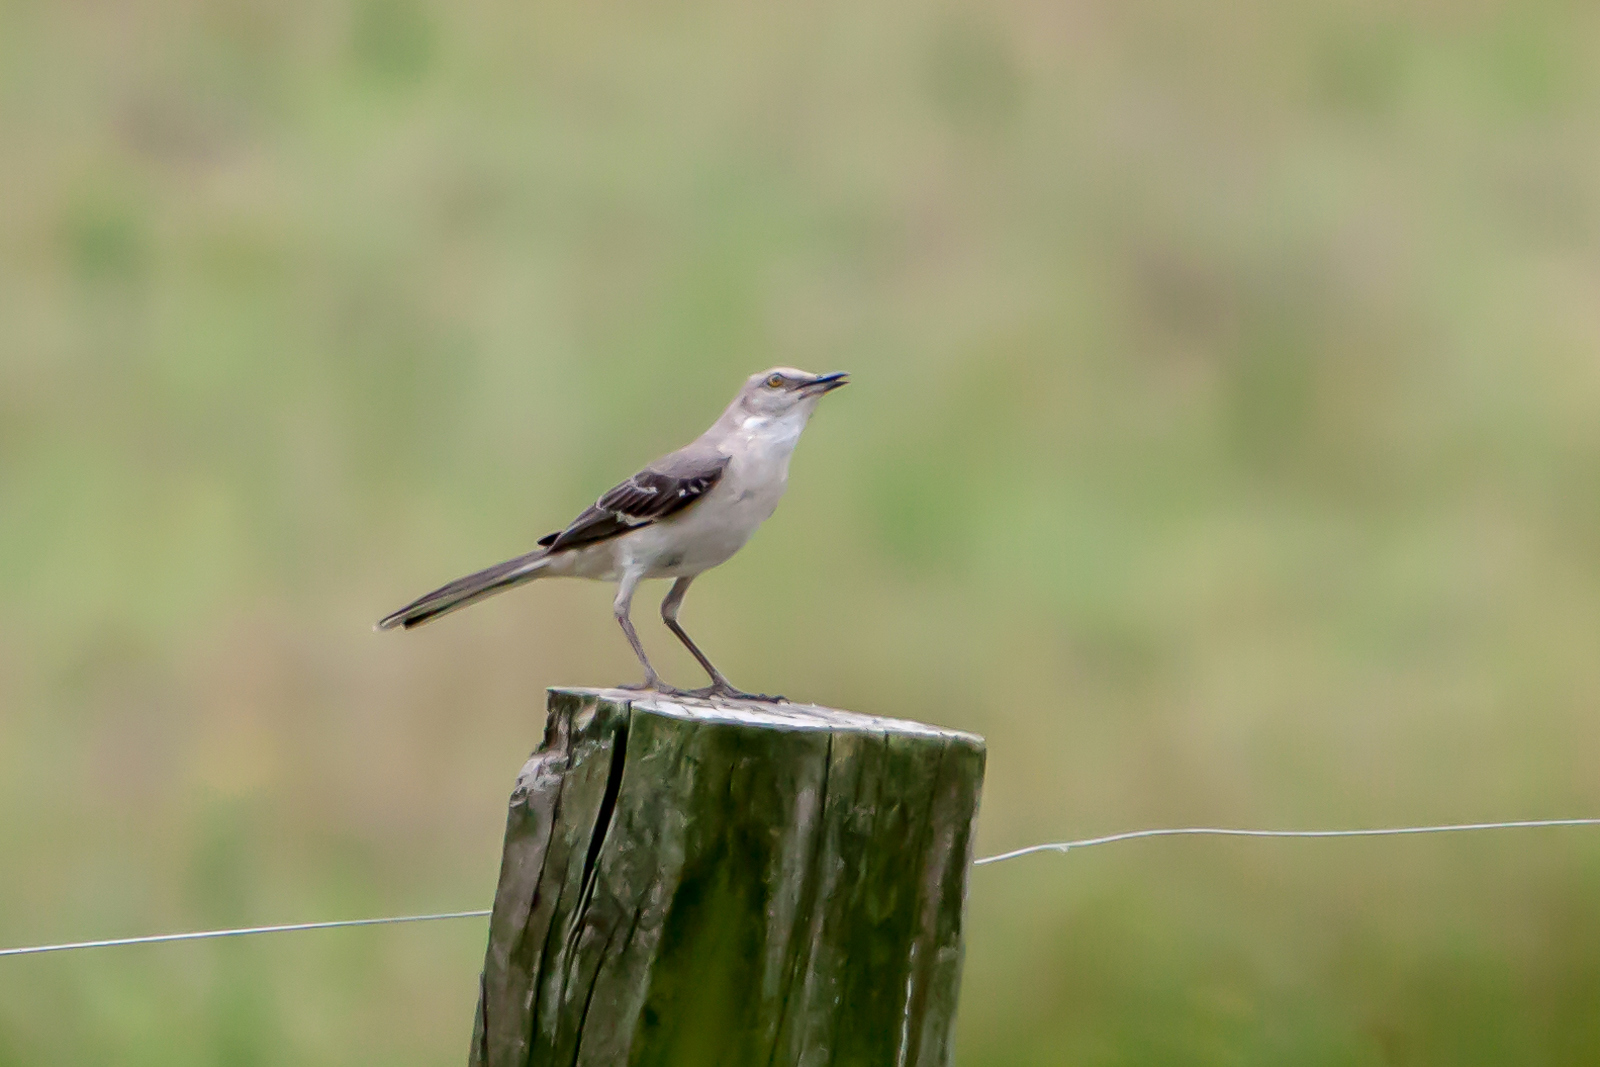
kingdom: Animalia
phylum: Chordata
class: Aves
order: Passeriformes
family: Mimidae
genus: Mimus
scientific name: Mimus polyglottos
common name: Northern mockingbird
